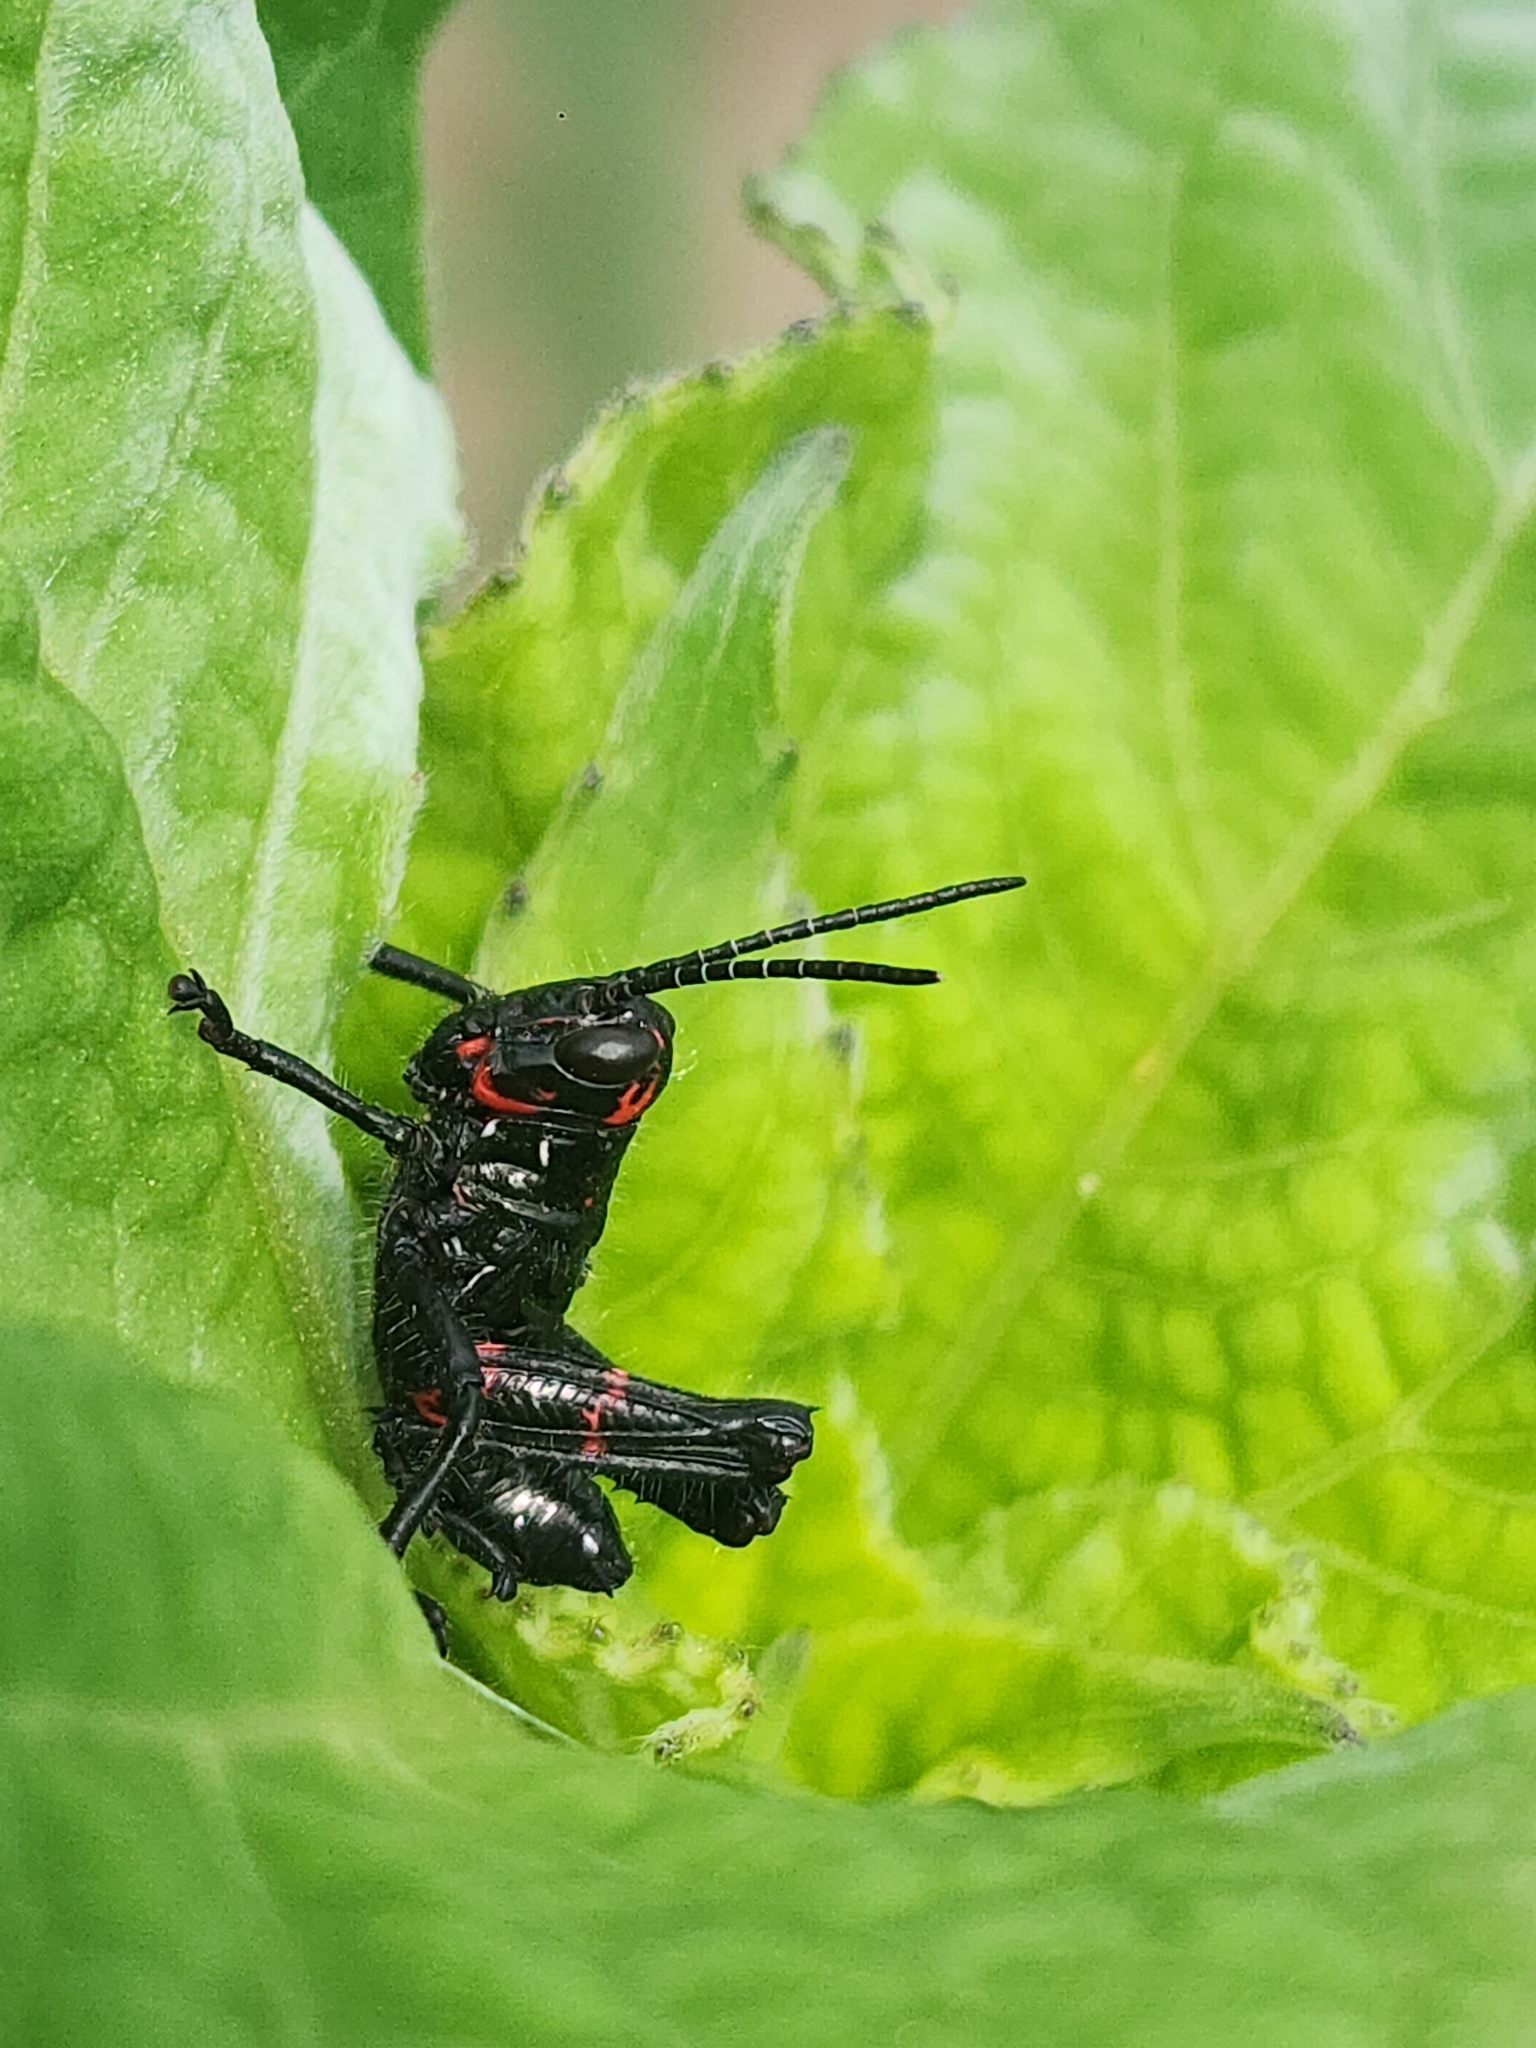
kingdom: Animalia
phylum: Arthropoda
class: Insecta
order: Orthoptera
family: Romaleidae
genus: Chromacris
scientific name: Chromacris speciosa
